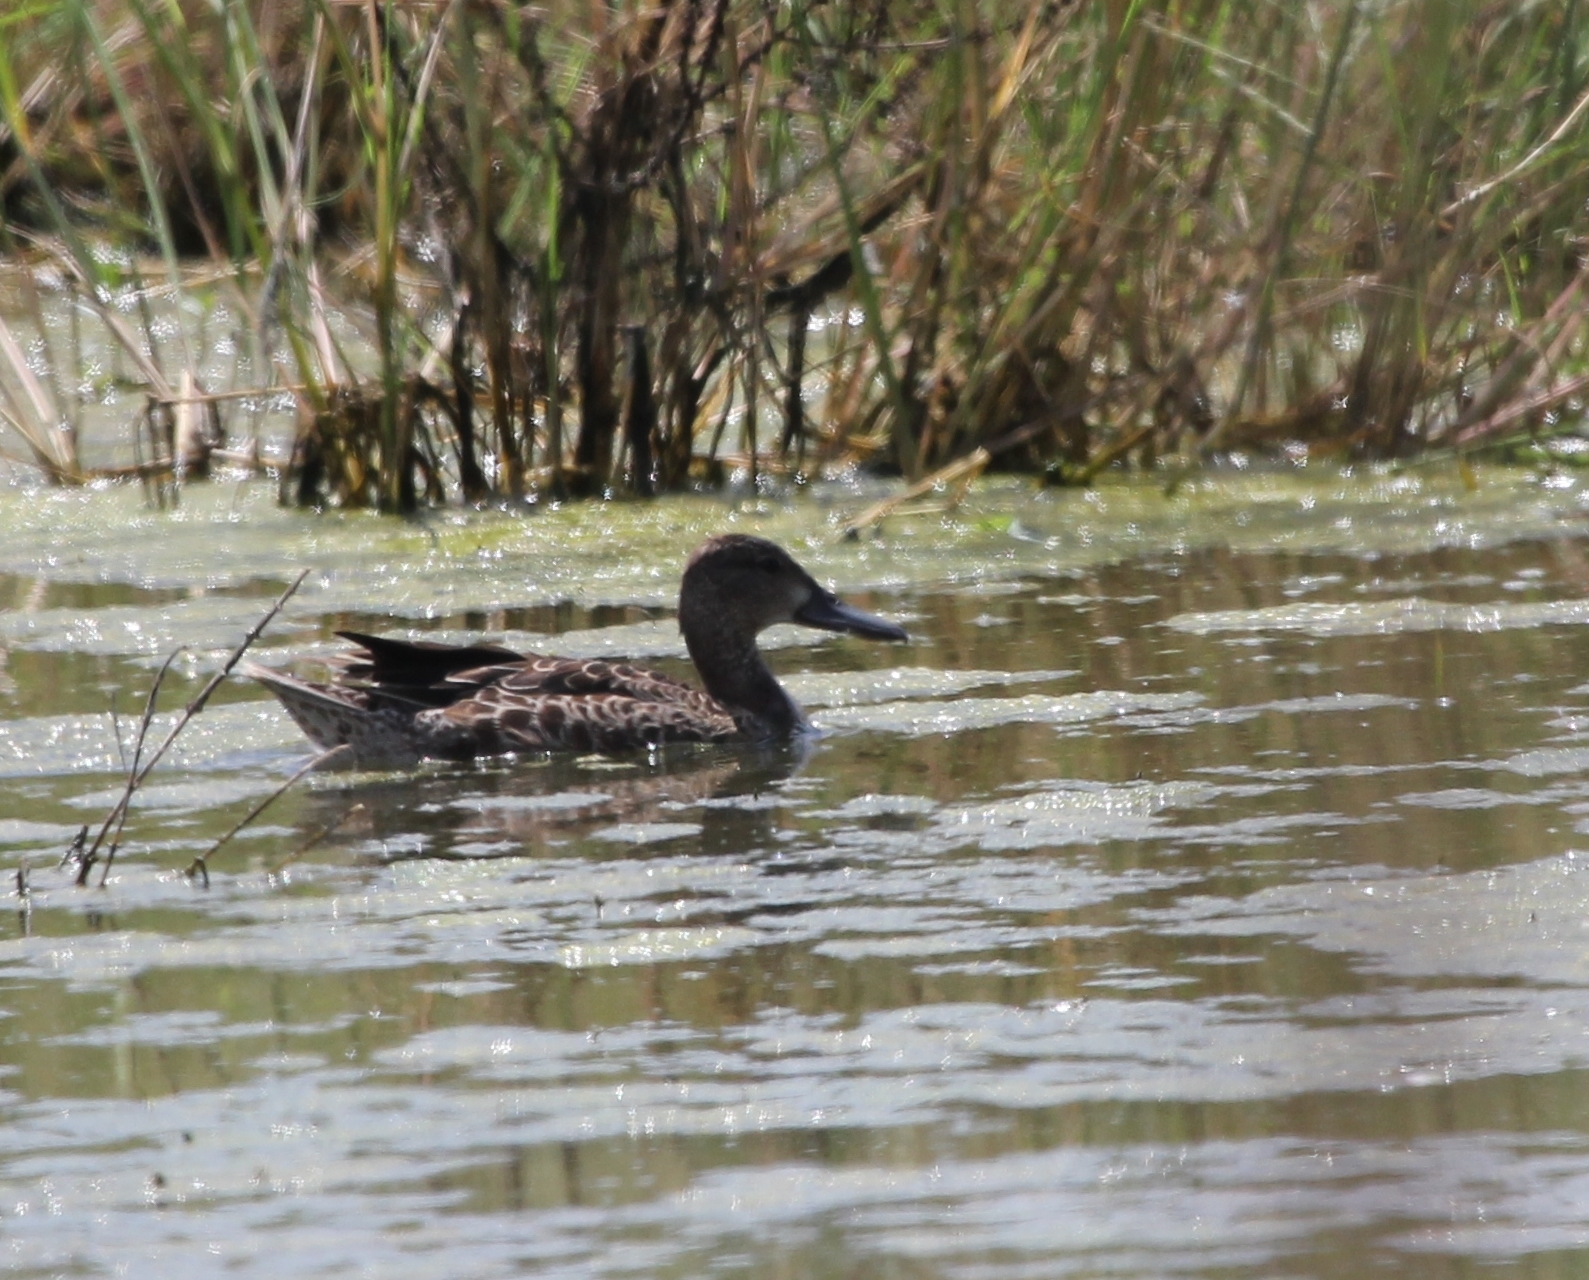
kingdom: Animalia
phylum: Chordata
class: Aves
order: Anseriformes
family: Anatidae
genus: Spatula
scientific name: Spatula discors
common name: Blue-winged teal
